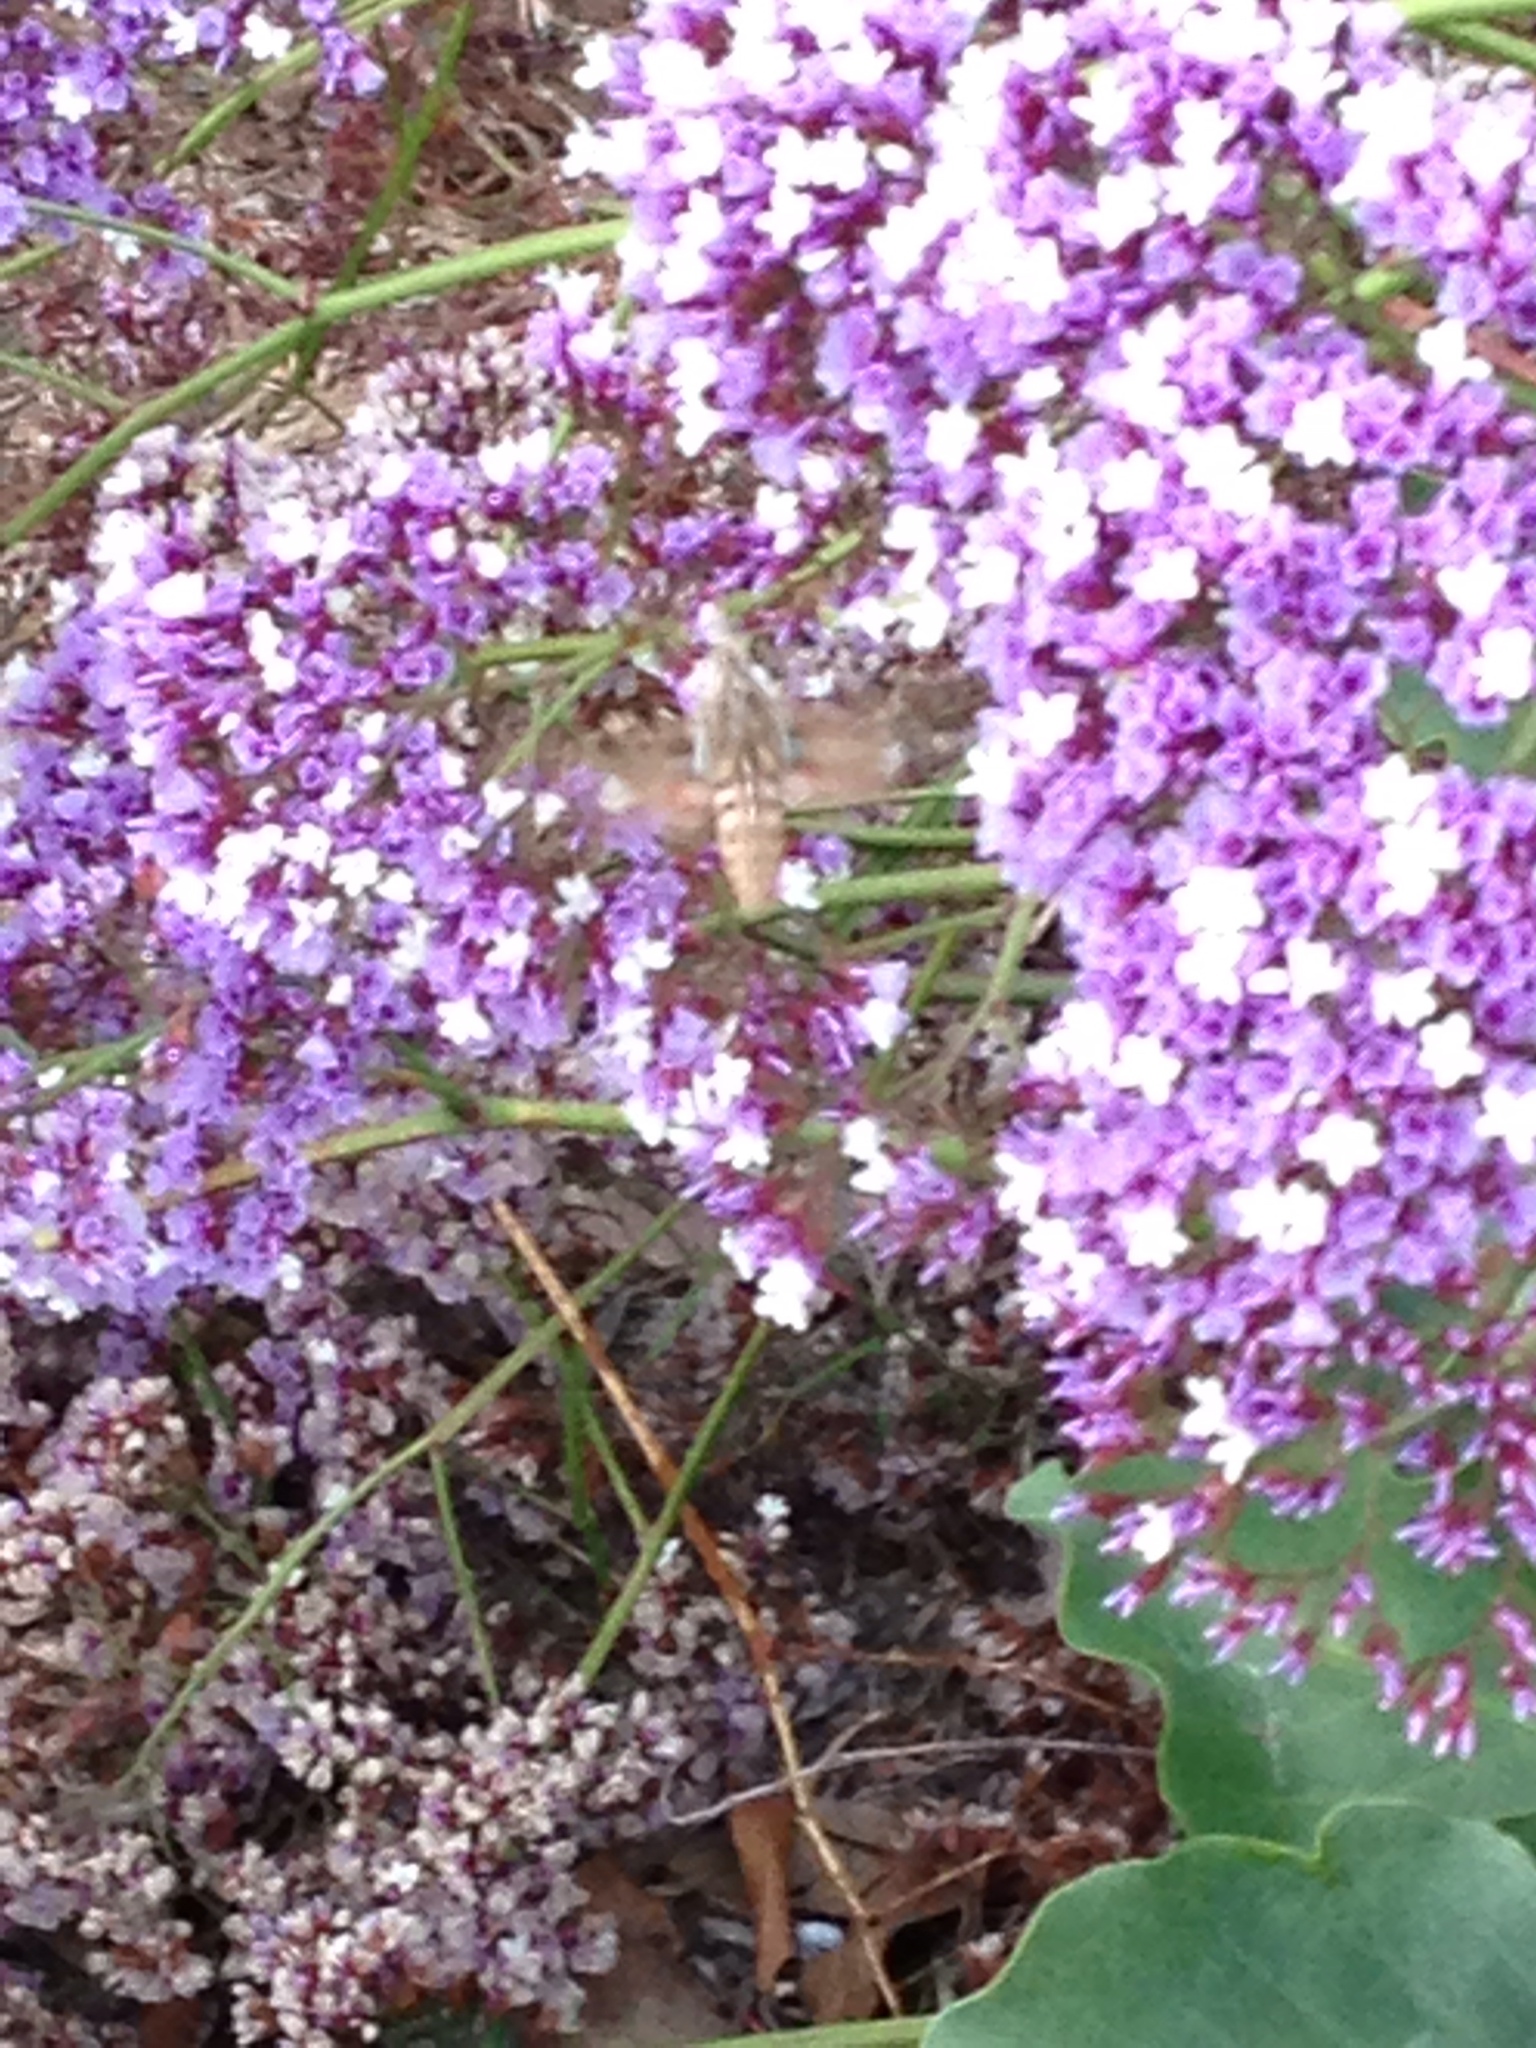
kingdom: Plantae
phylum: Tracheophyta
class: Magnoliopsida
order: Caryophyllales
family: Plumbaginaceae
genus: Limonium
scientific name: Limonium perezii
